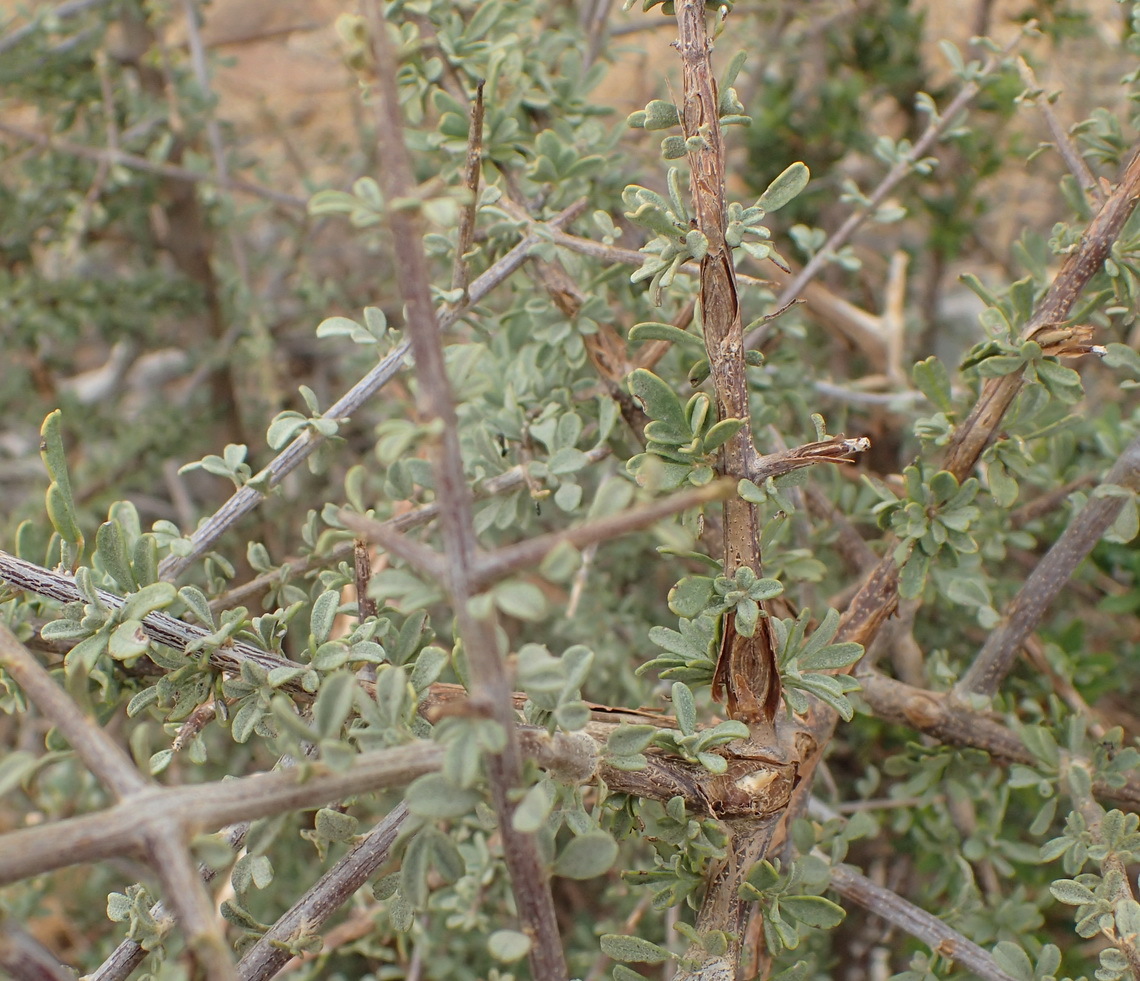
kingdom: Plantae
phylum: Tracheophyta
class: Magnoliopsida
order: Lamiales
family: Bignoniaceae
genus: Rhigozum
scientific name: Rhigozum obovatum
